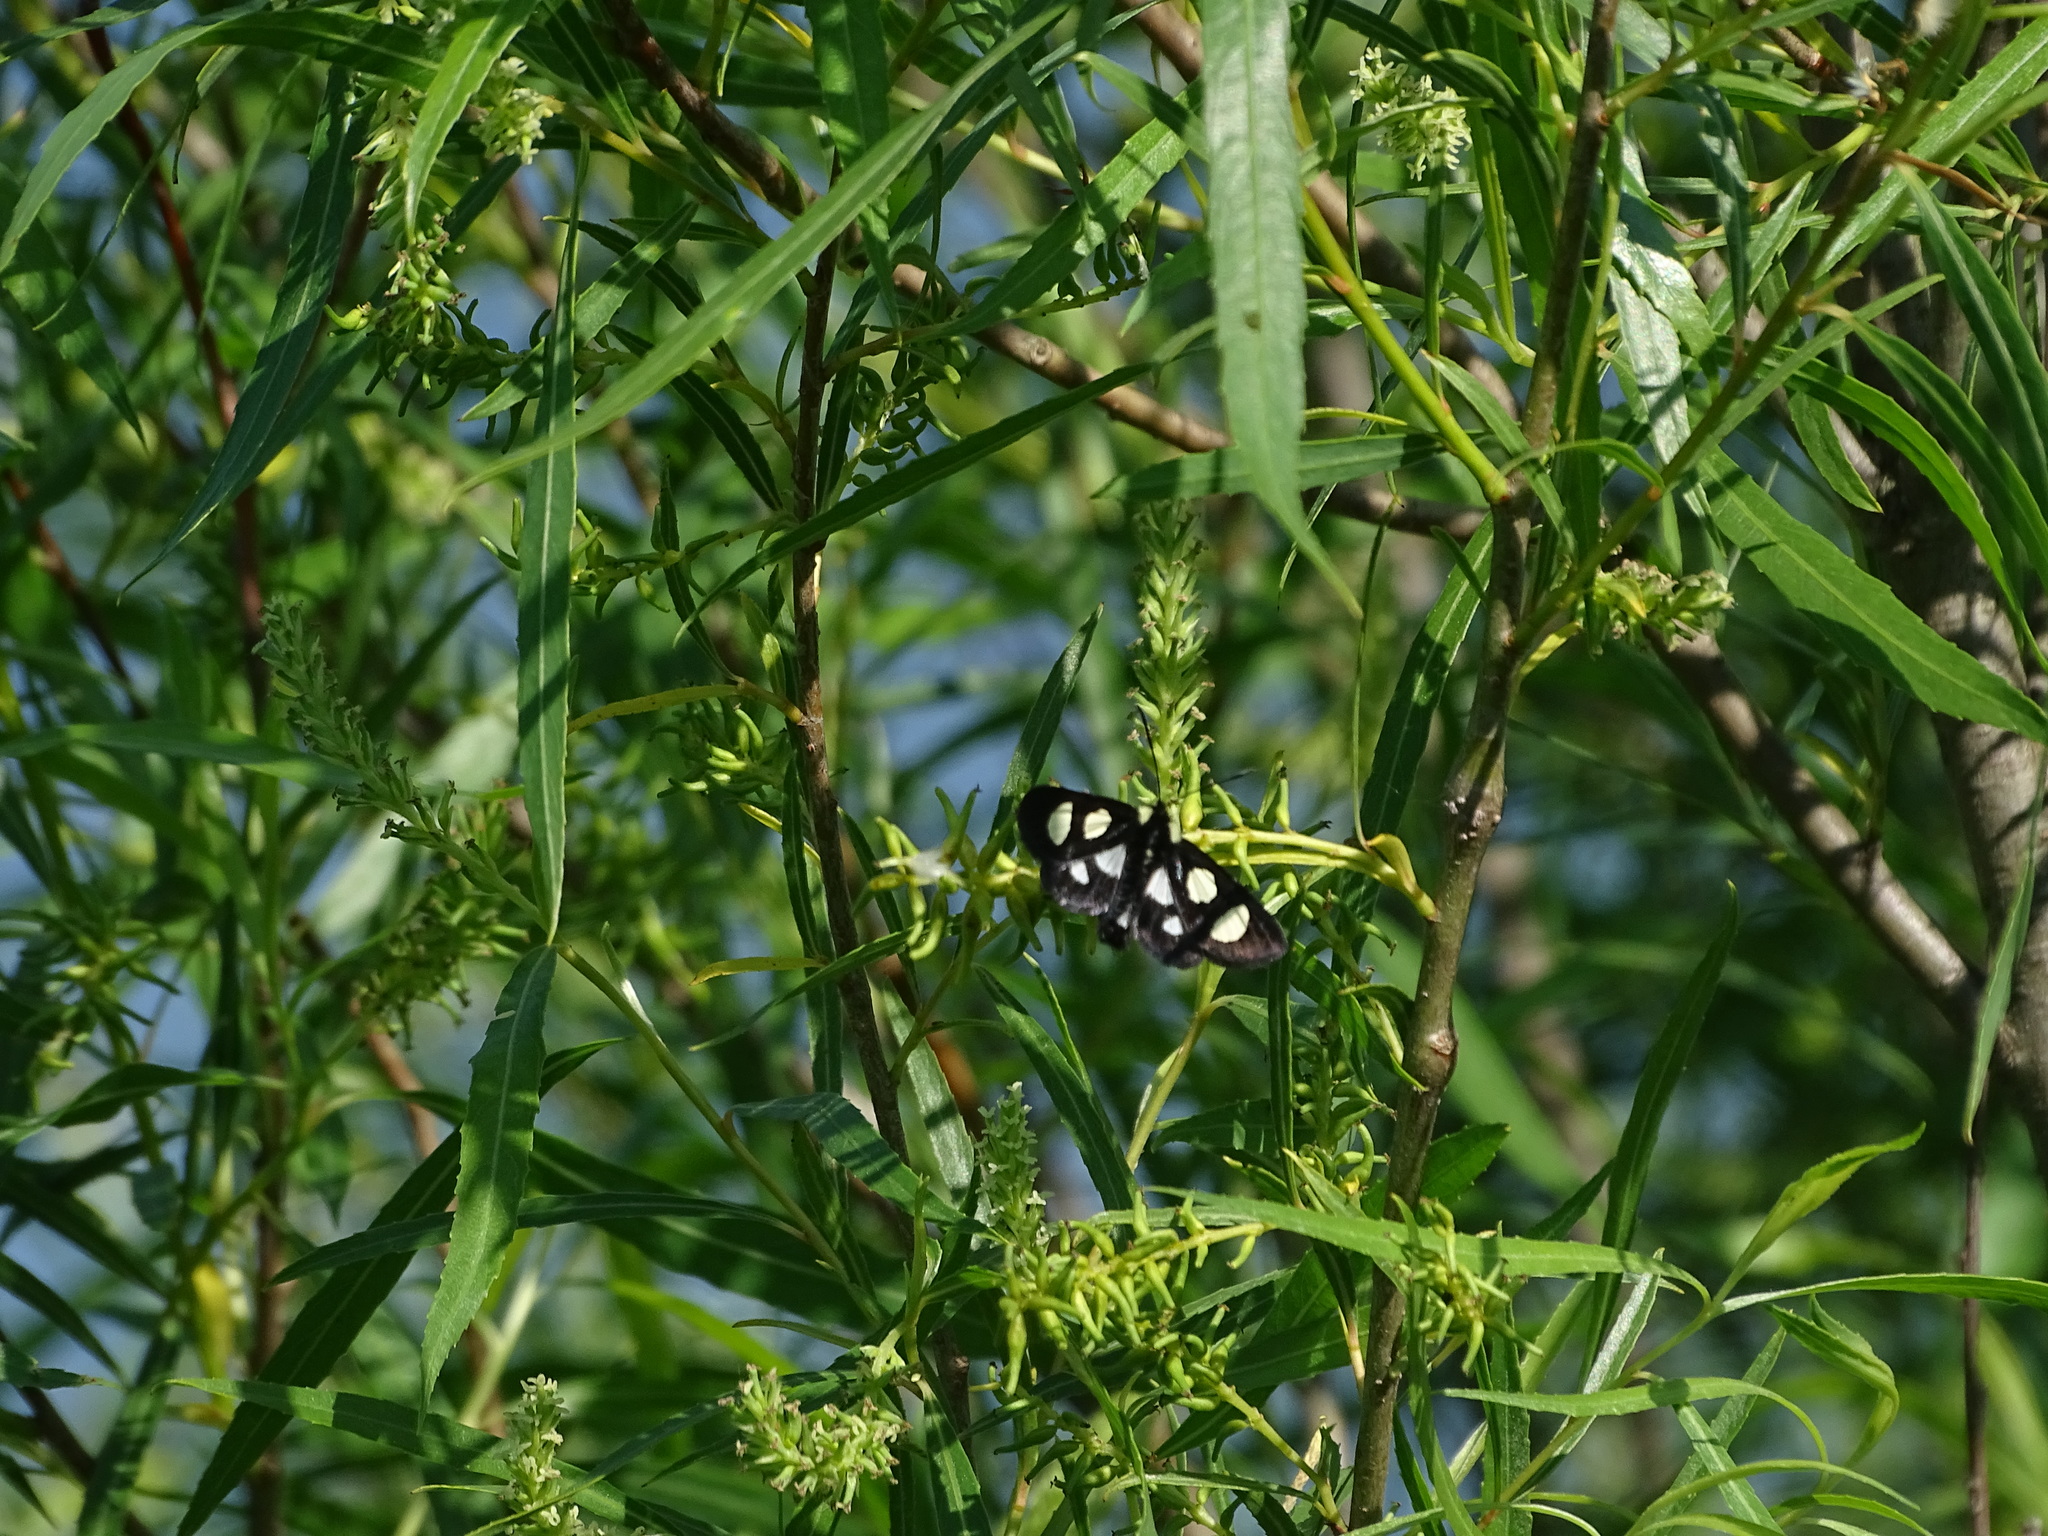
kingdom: Animalia
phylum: Arthropoda
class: Insecta
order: Lepidoptera
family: Noctuidae
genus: Alypia
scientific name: Alypia octomaculata
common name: Eight-spotted forester
